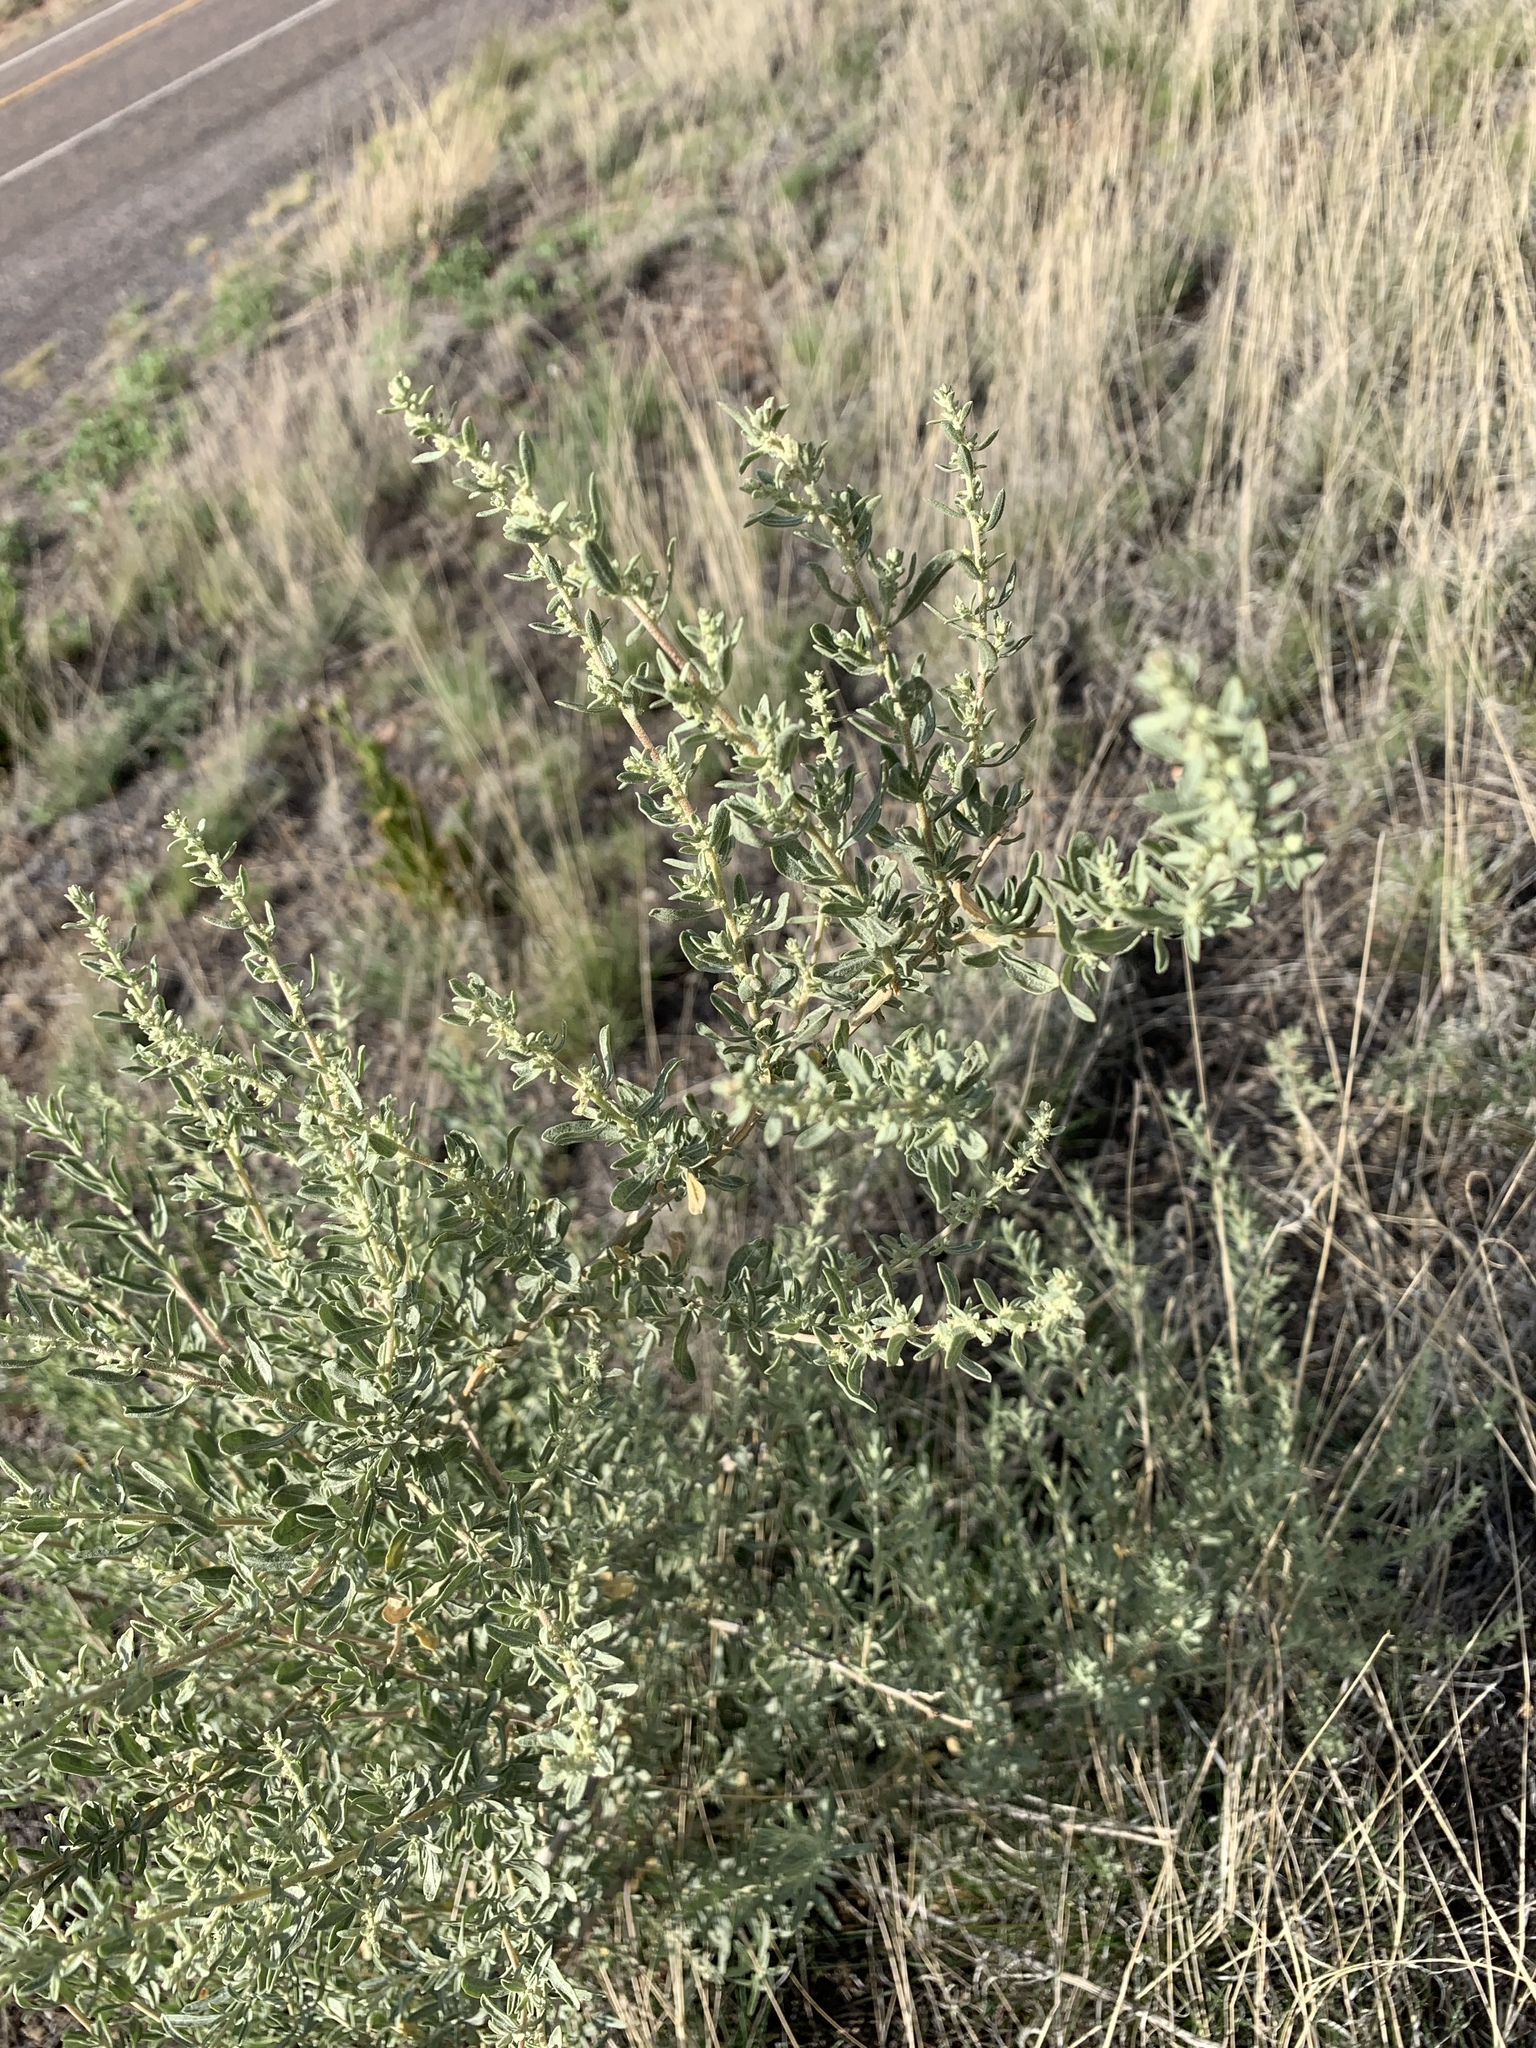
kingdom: Plantae
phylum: Tracheophyta
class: Magnoliopsida
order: Caryophyllales
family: Amaranthaceae
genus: Atriplex
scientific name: Atriplex canescens
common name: Four-wing saltbush
